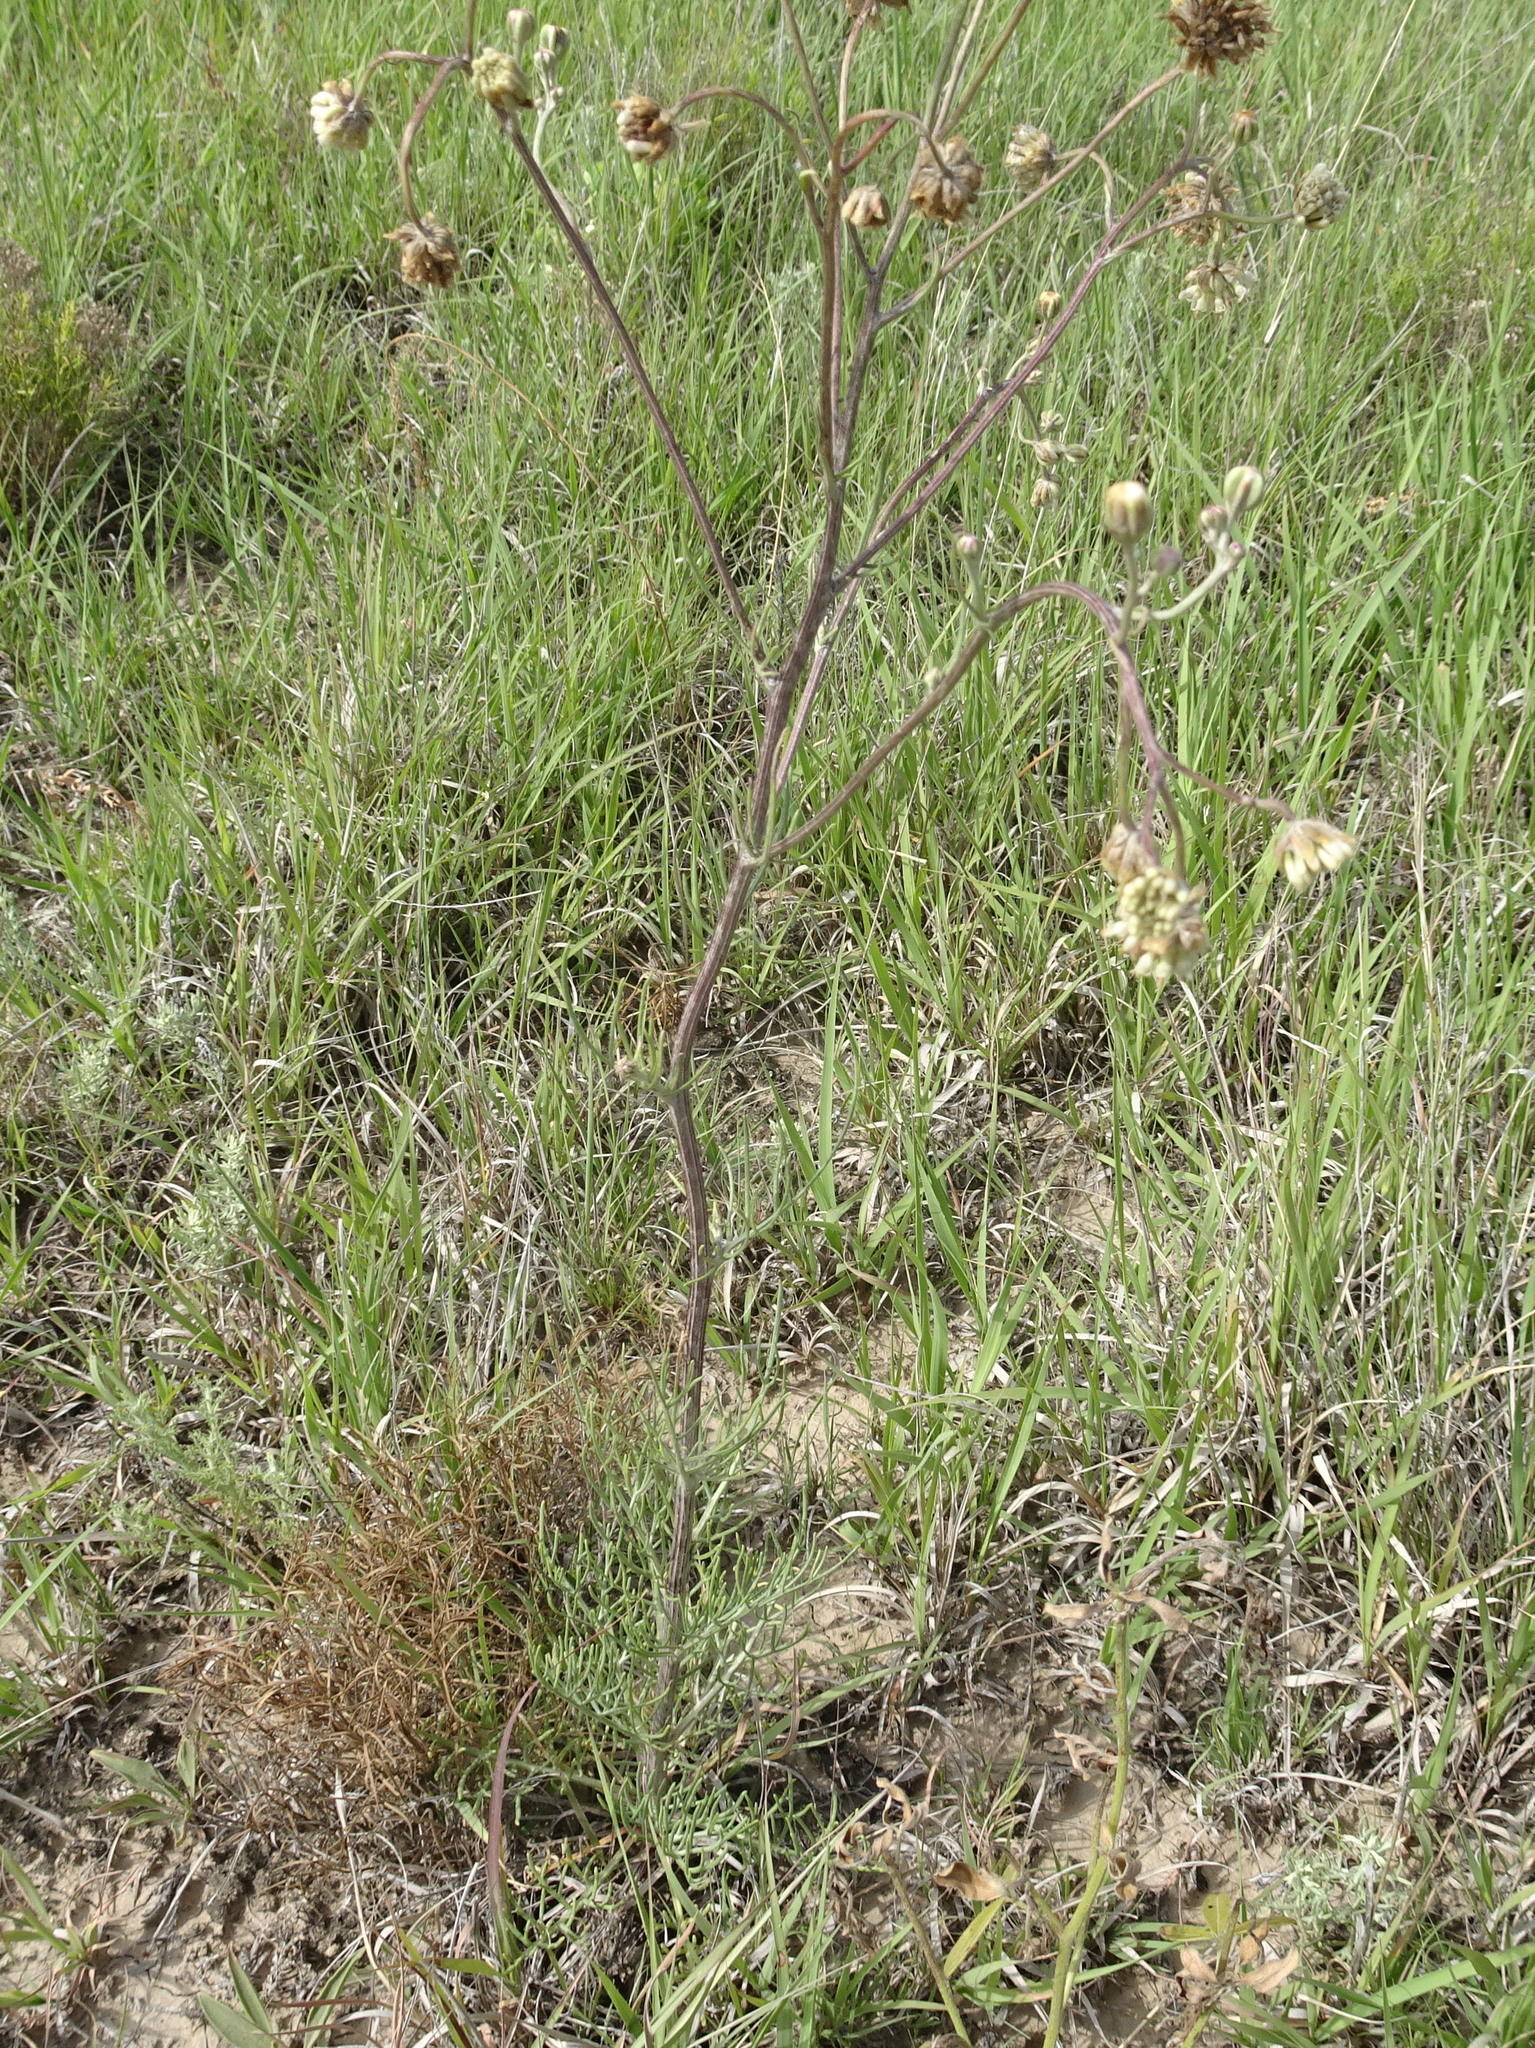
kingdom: Plantae
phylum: Tracheophyta
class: Magnoliopsida
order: Asterales
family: Asteraceae
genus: Hymenopappus
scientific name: Hymenopappus tenuifolius
